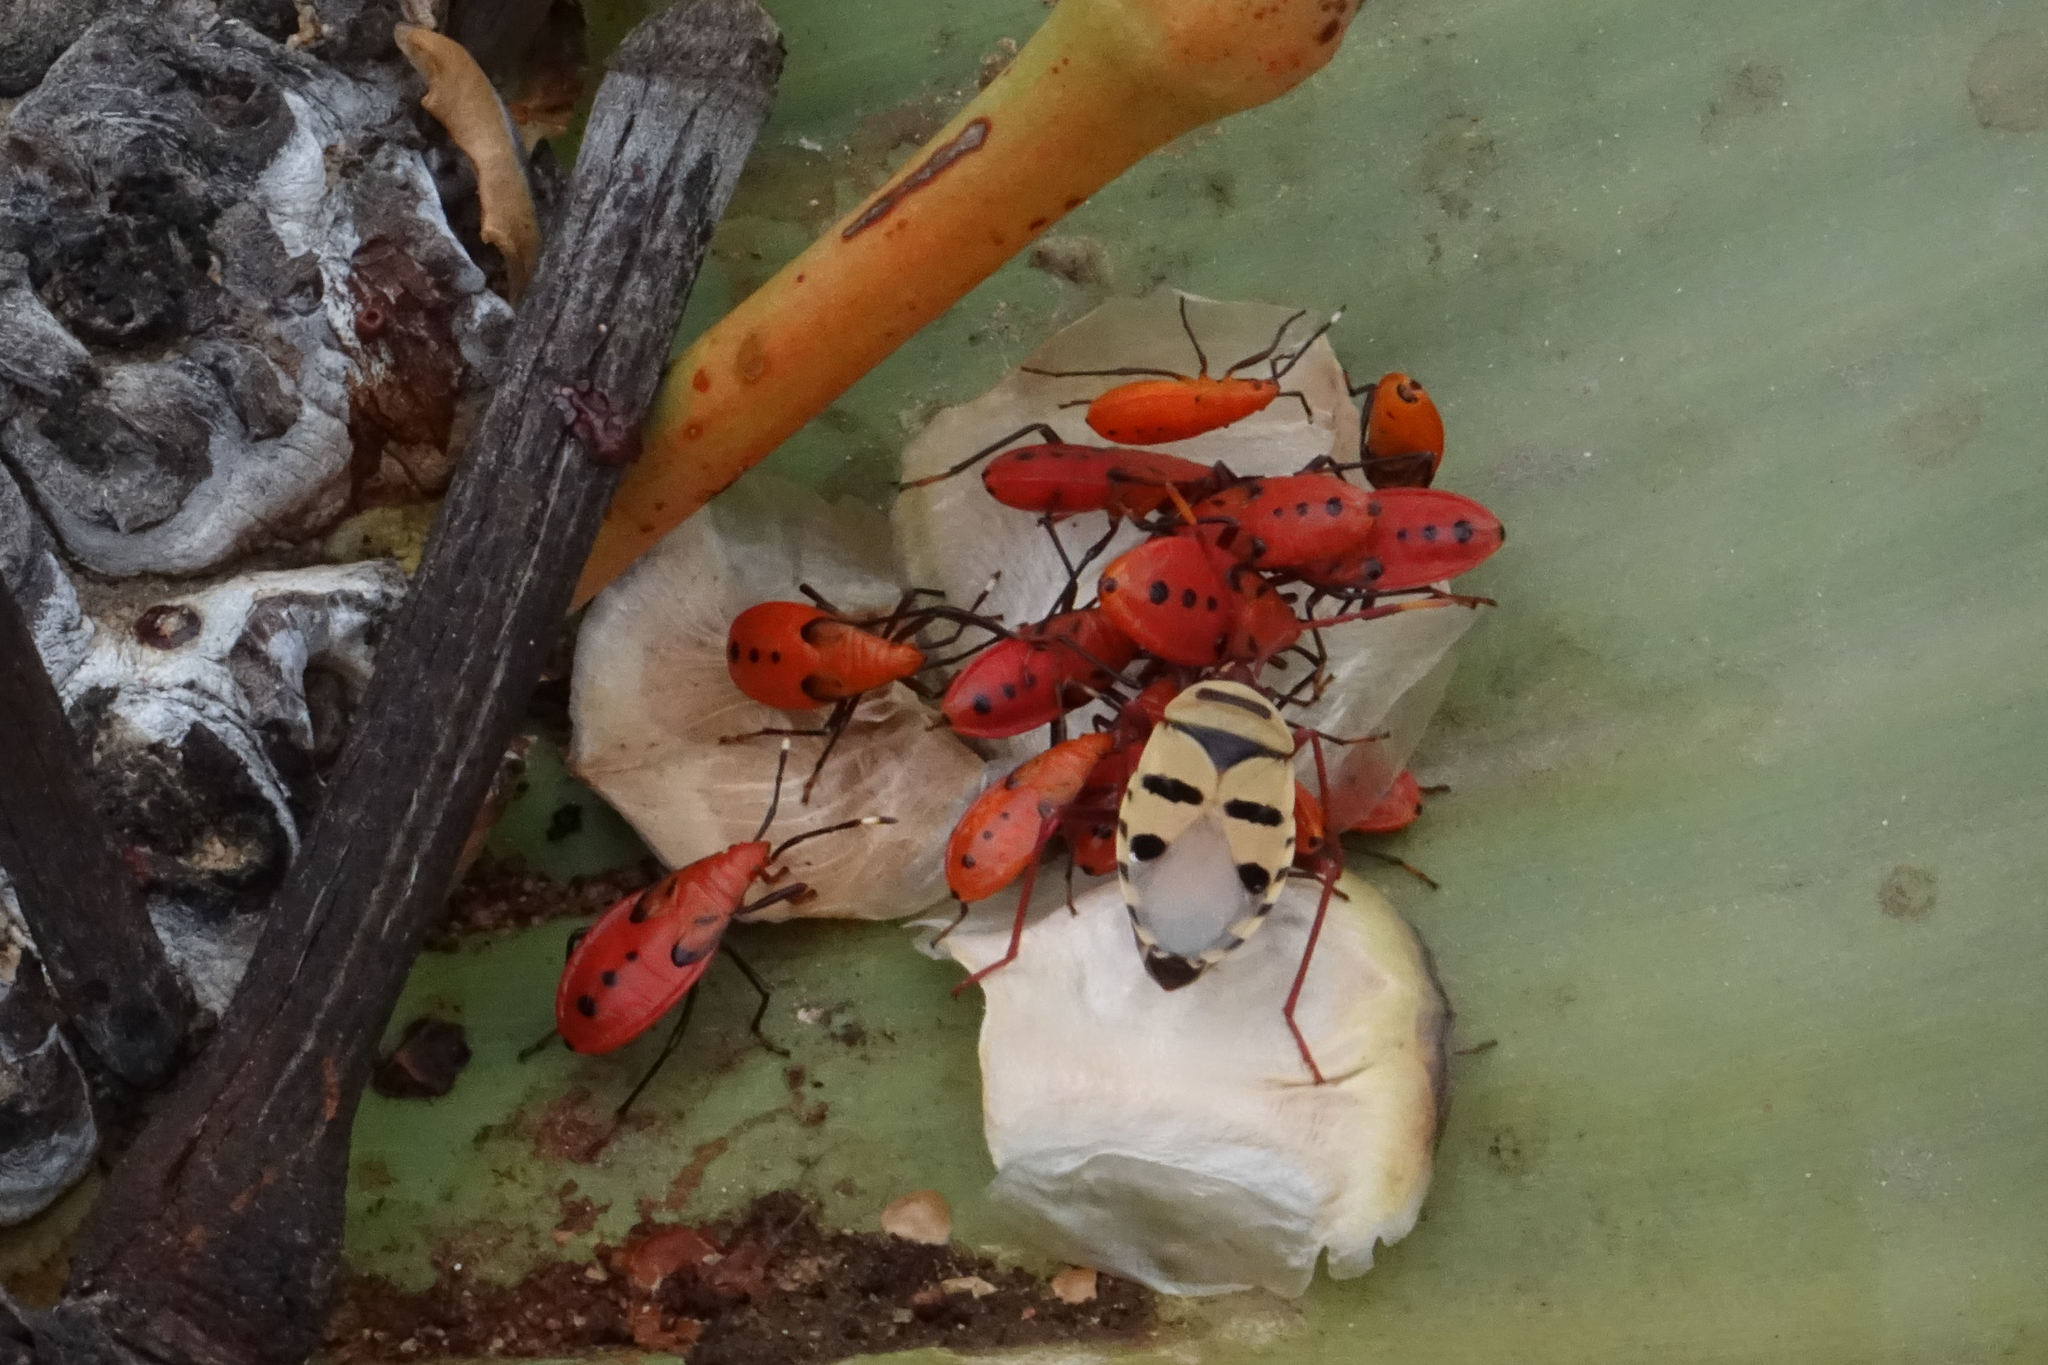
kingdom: Animalia
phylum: Arthropoda
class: Insecta
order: Hemiptera
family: Pyrrhocoridae
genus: Probergrothius
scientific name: Probergrothius angolensis
